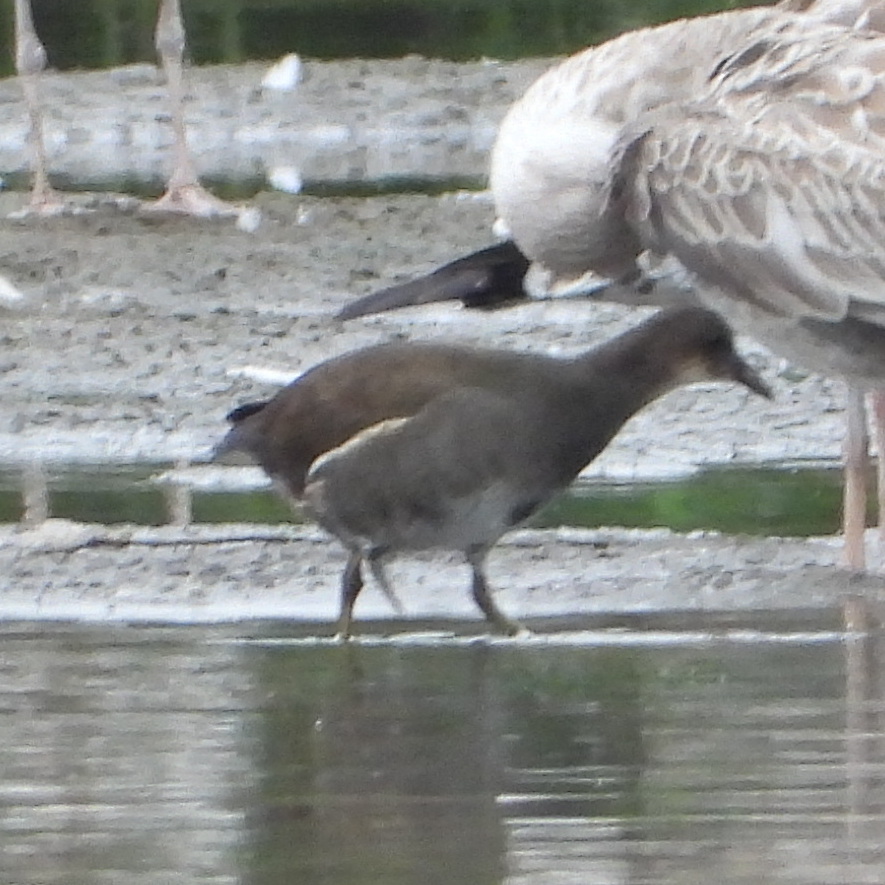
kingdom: Animalia
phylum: Chordata
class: Aves
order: Gruiformes
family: Rallidae
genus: Gallinula
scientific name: Gallinula chloropus
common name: Common moorhen
